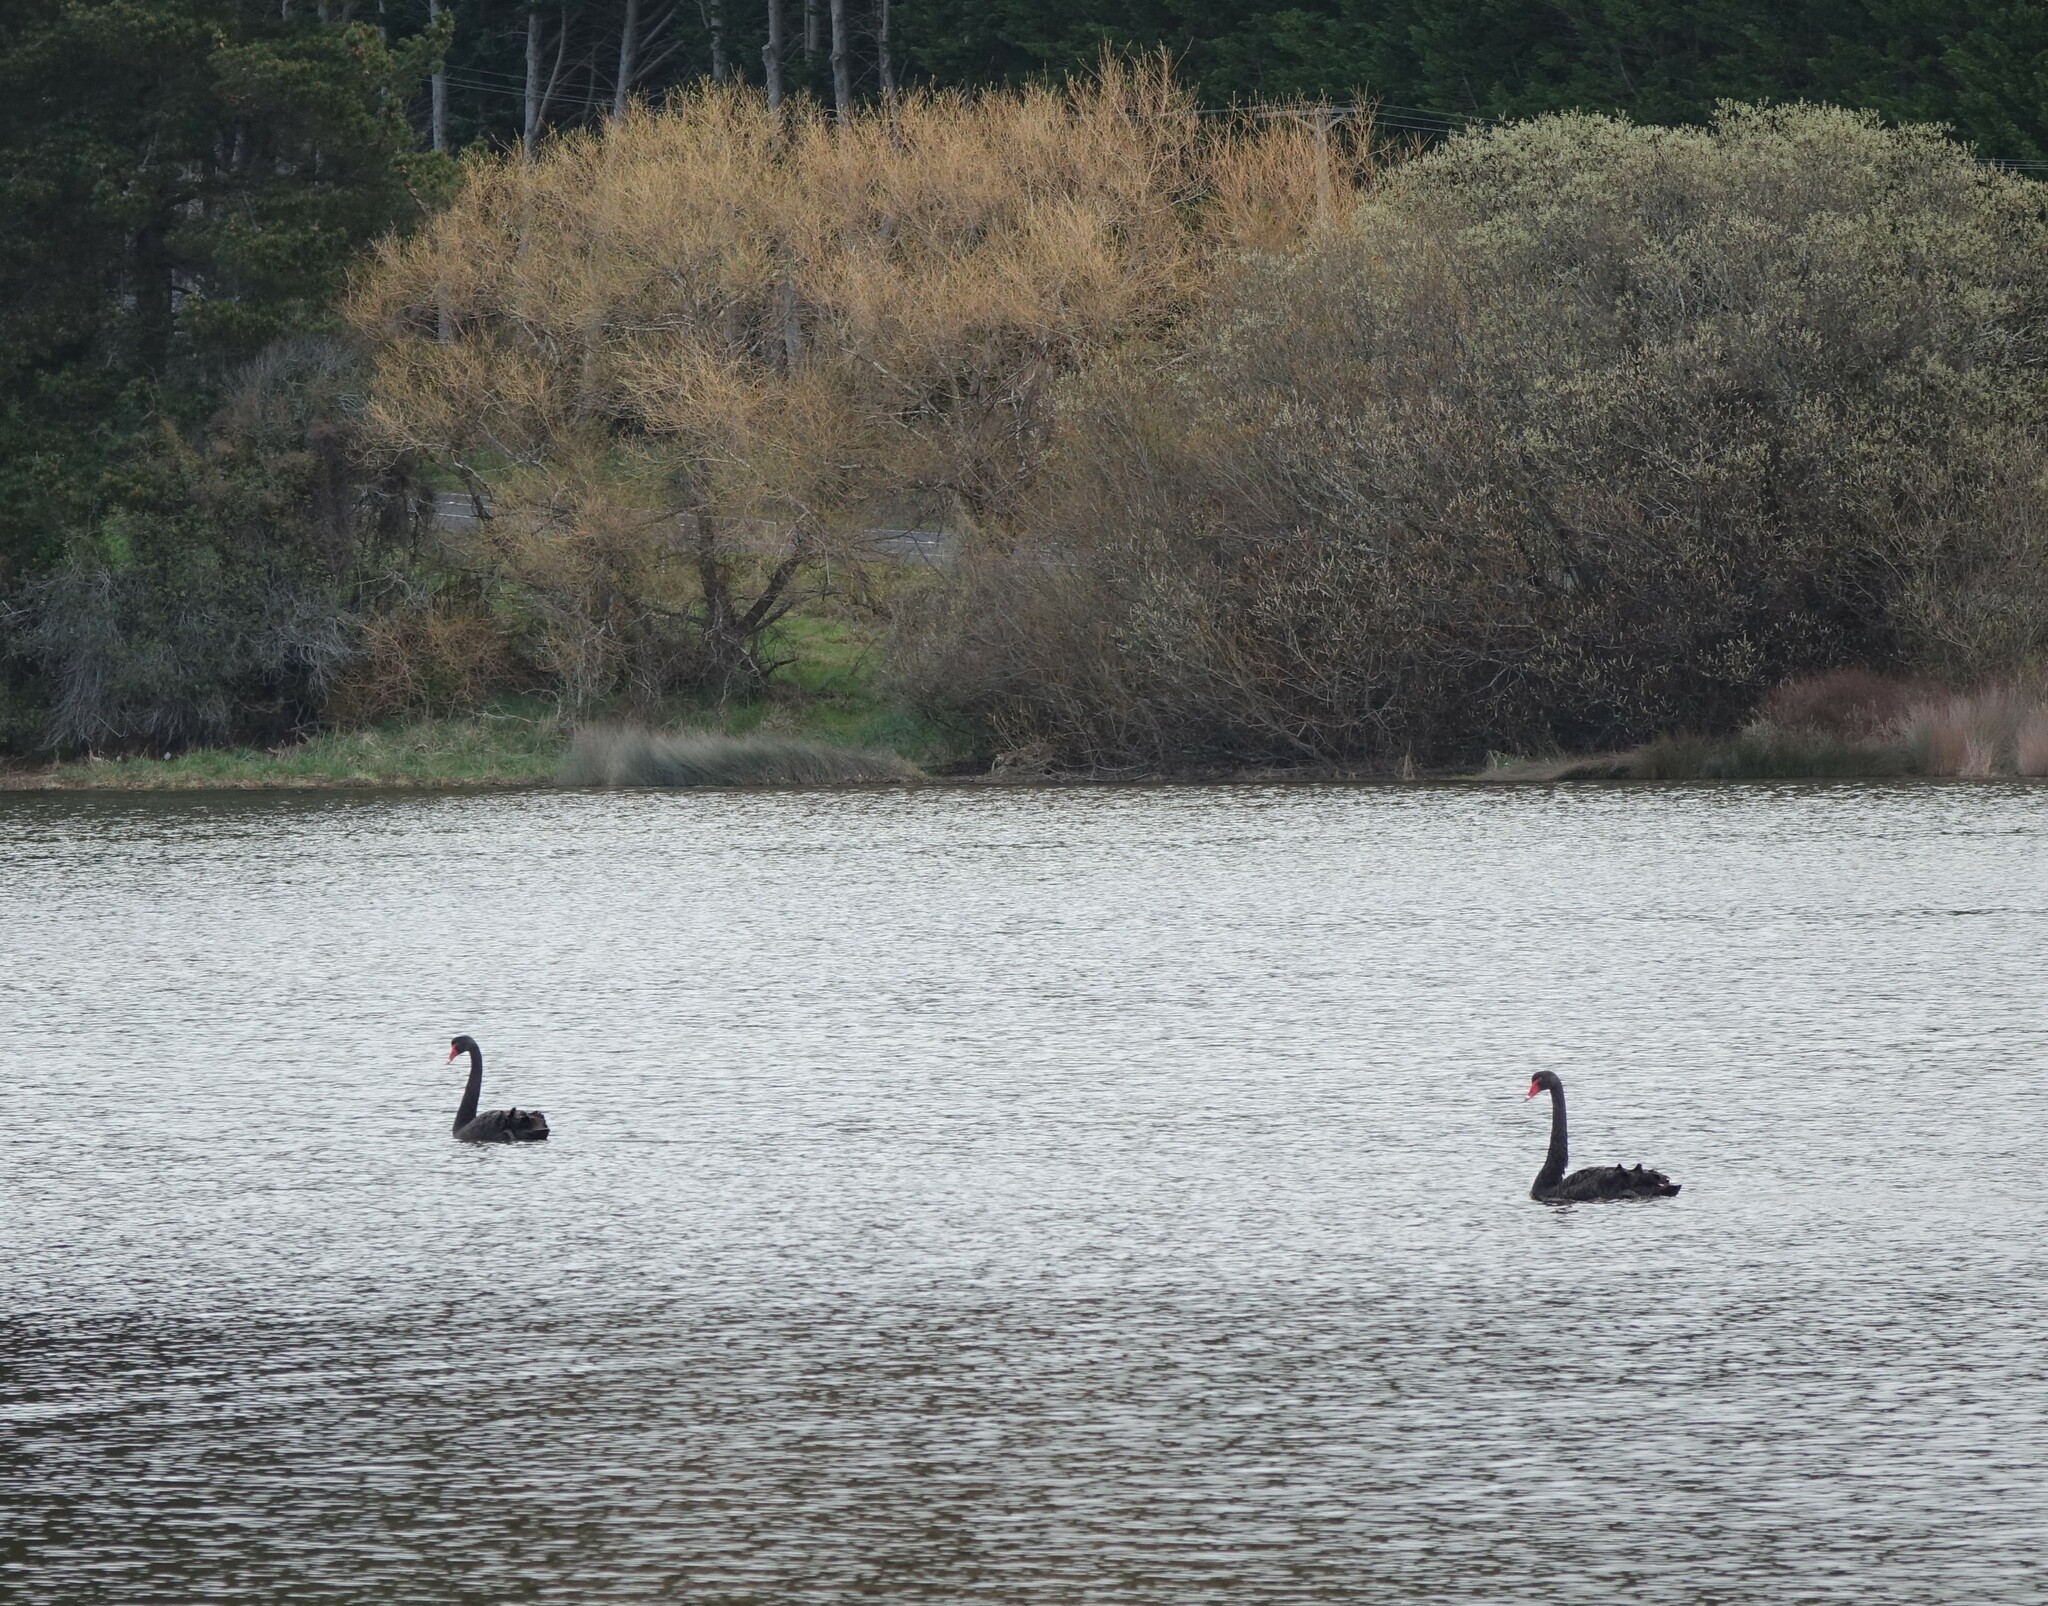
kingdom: Animalia
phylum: Chordata
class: Aves
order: Anseriformes
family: Anatidae
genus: Cygnus
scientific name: Cygnus atratus
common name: Black swan
